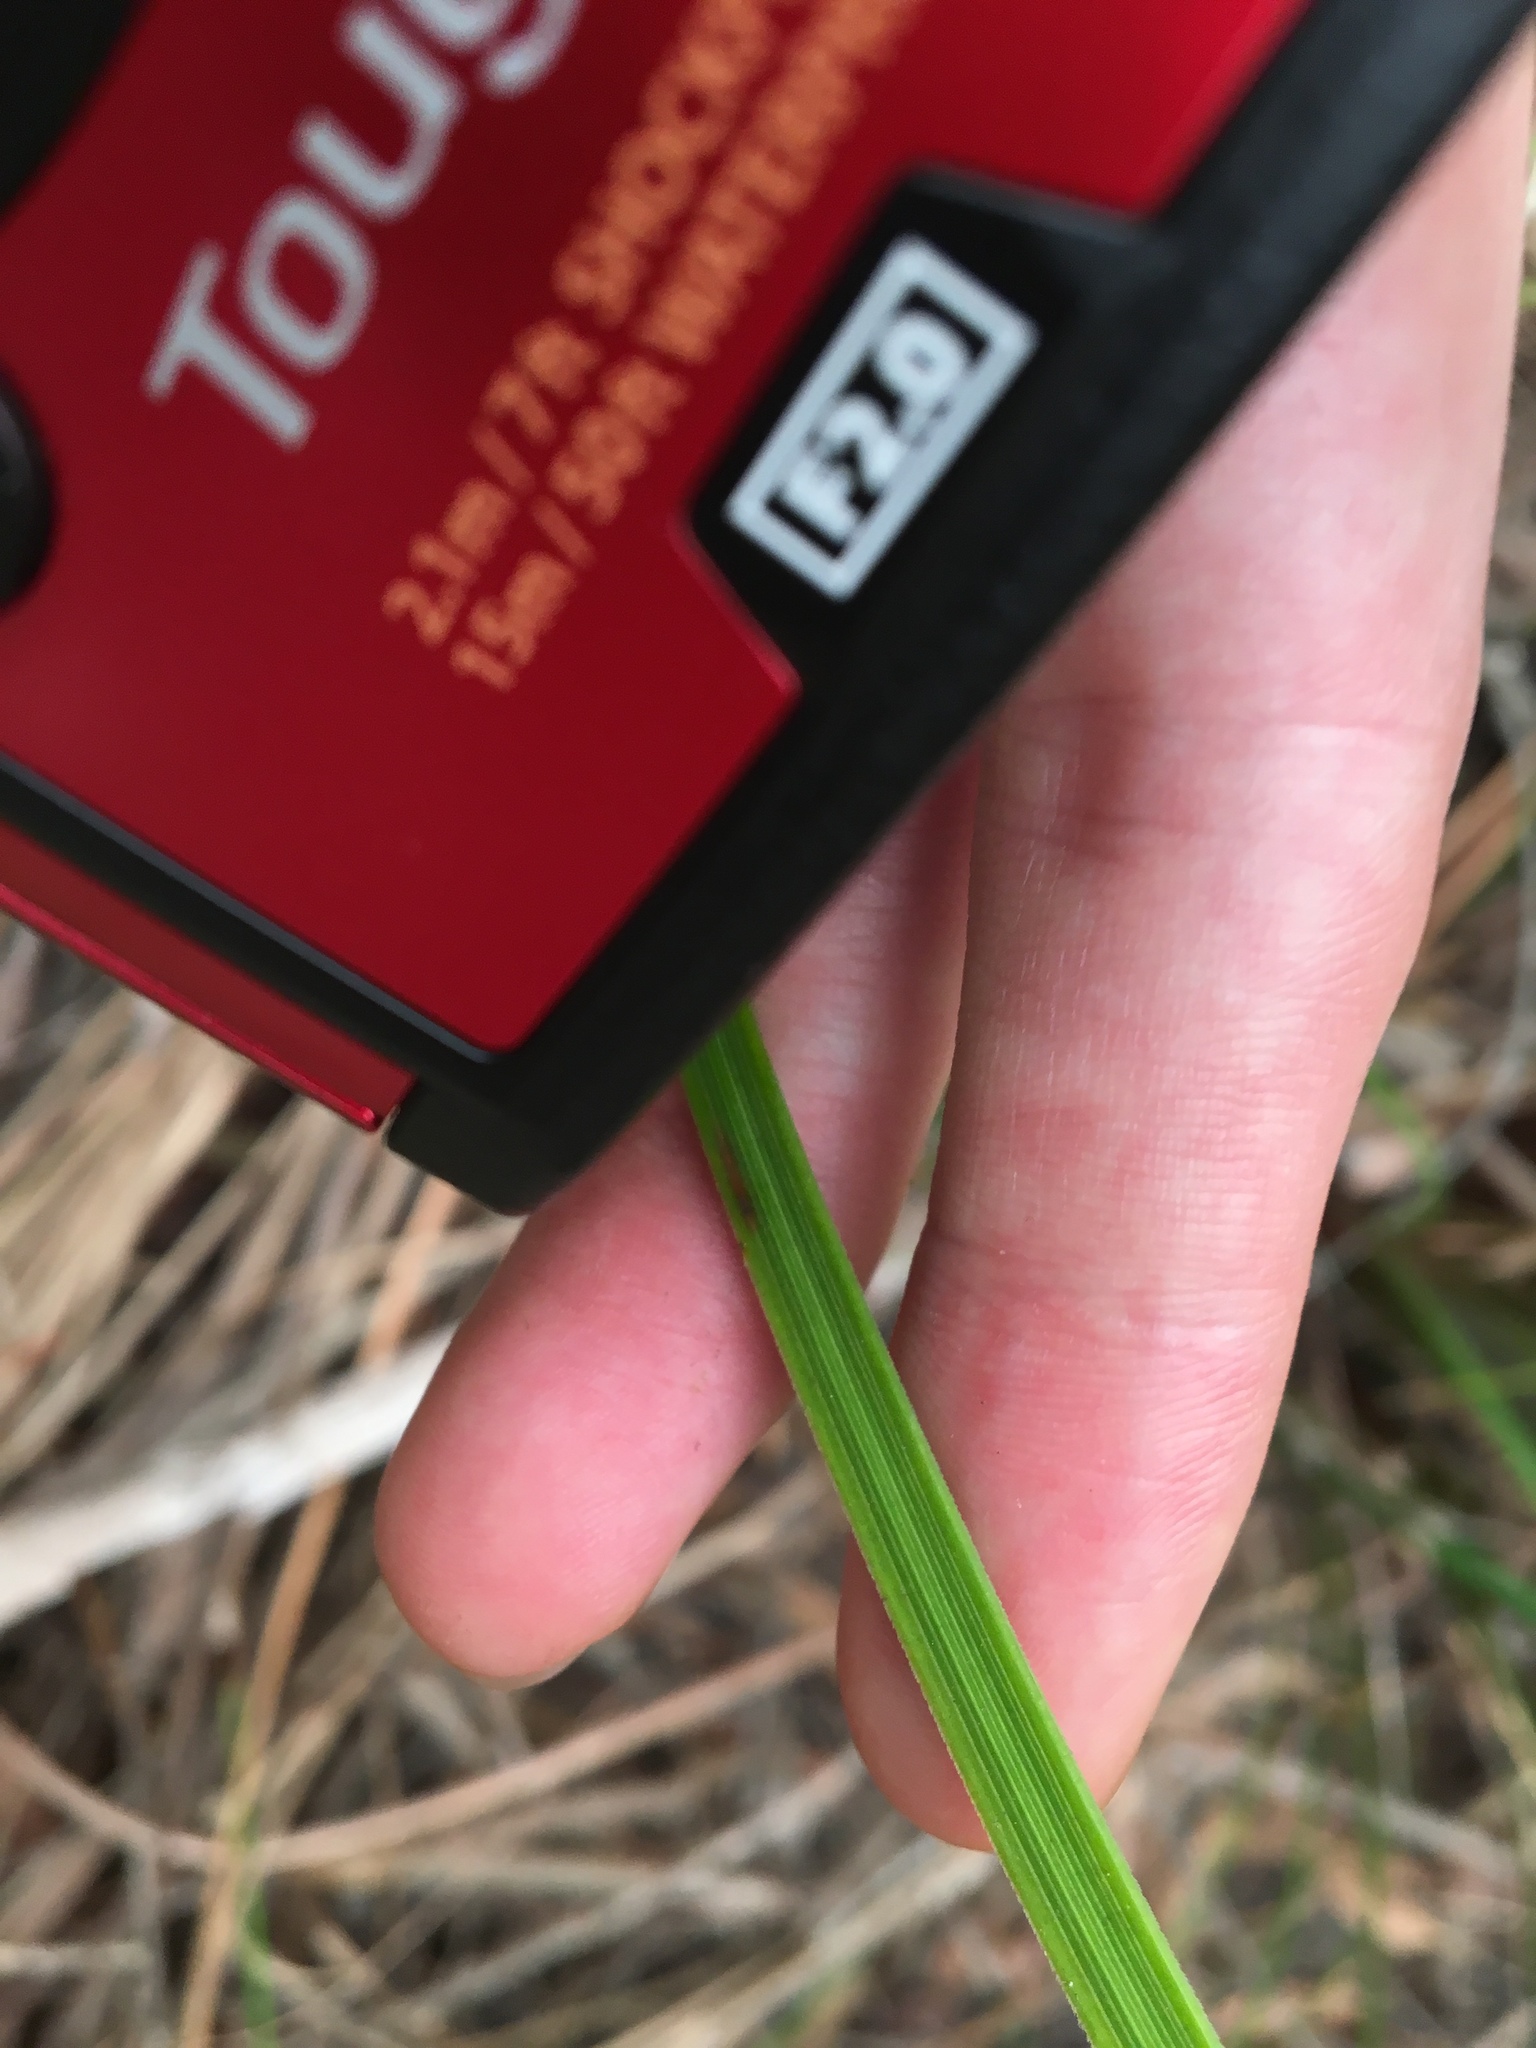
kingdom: Plantae
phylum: Tracheophyta
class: Liliopsida
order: Asparagales
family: Asphodelaceae
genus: Xanthorrhoea
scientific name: Xanthorrhoea macronema
